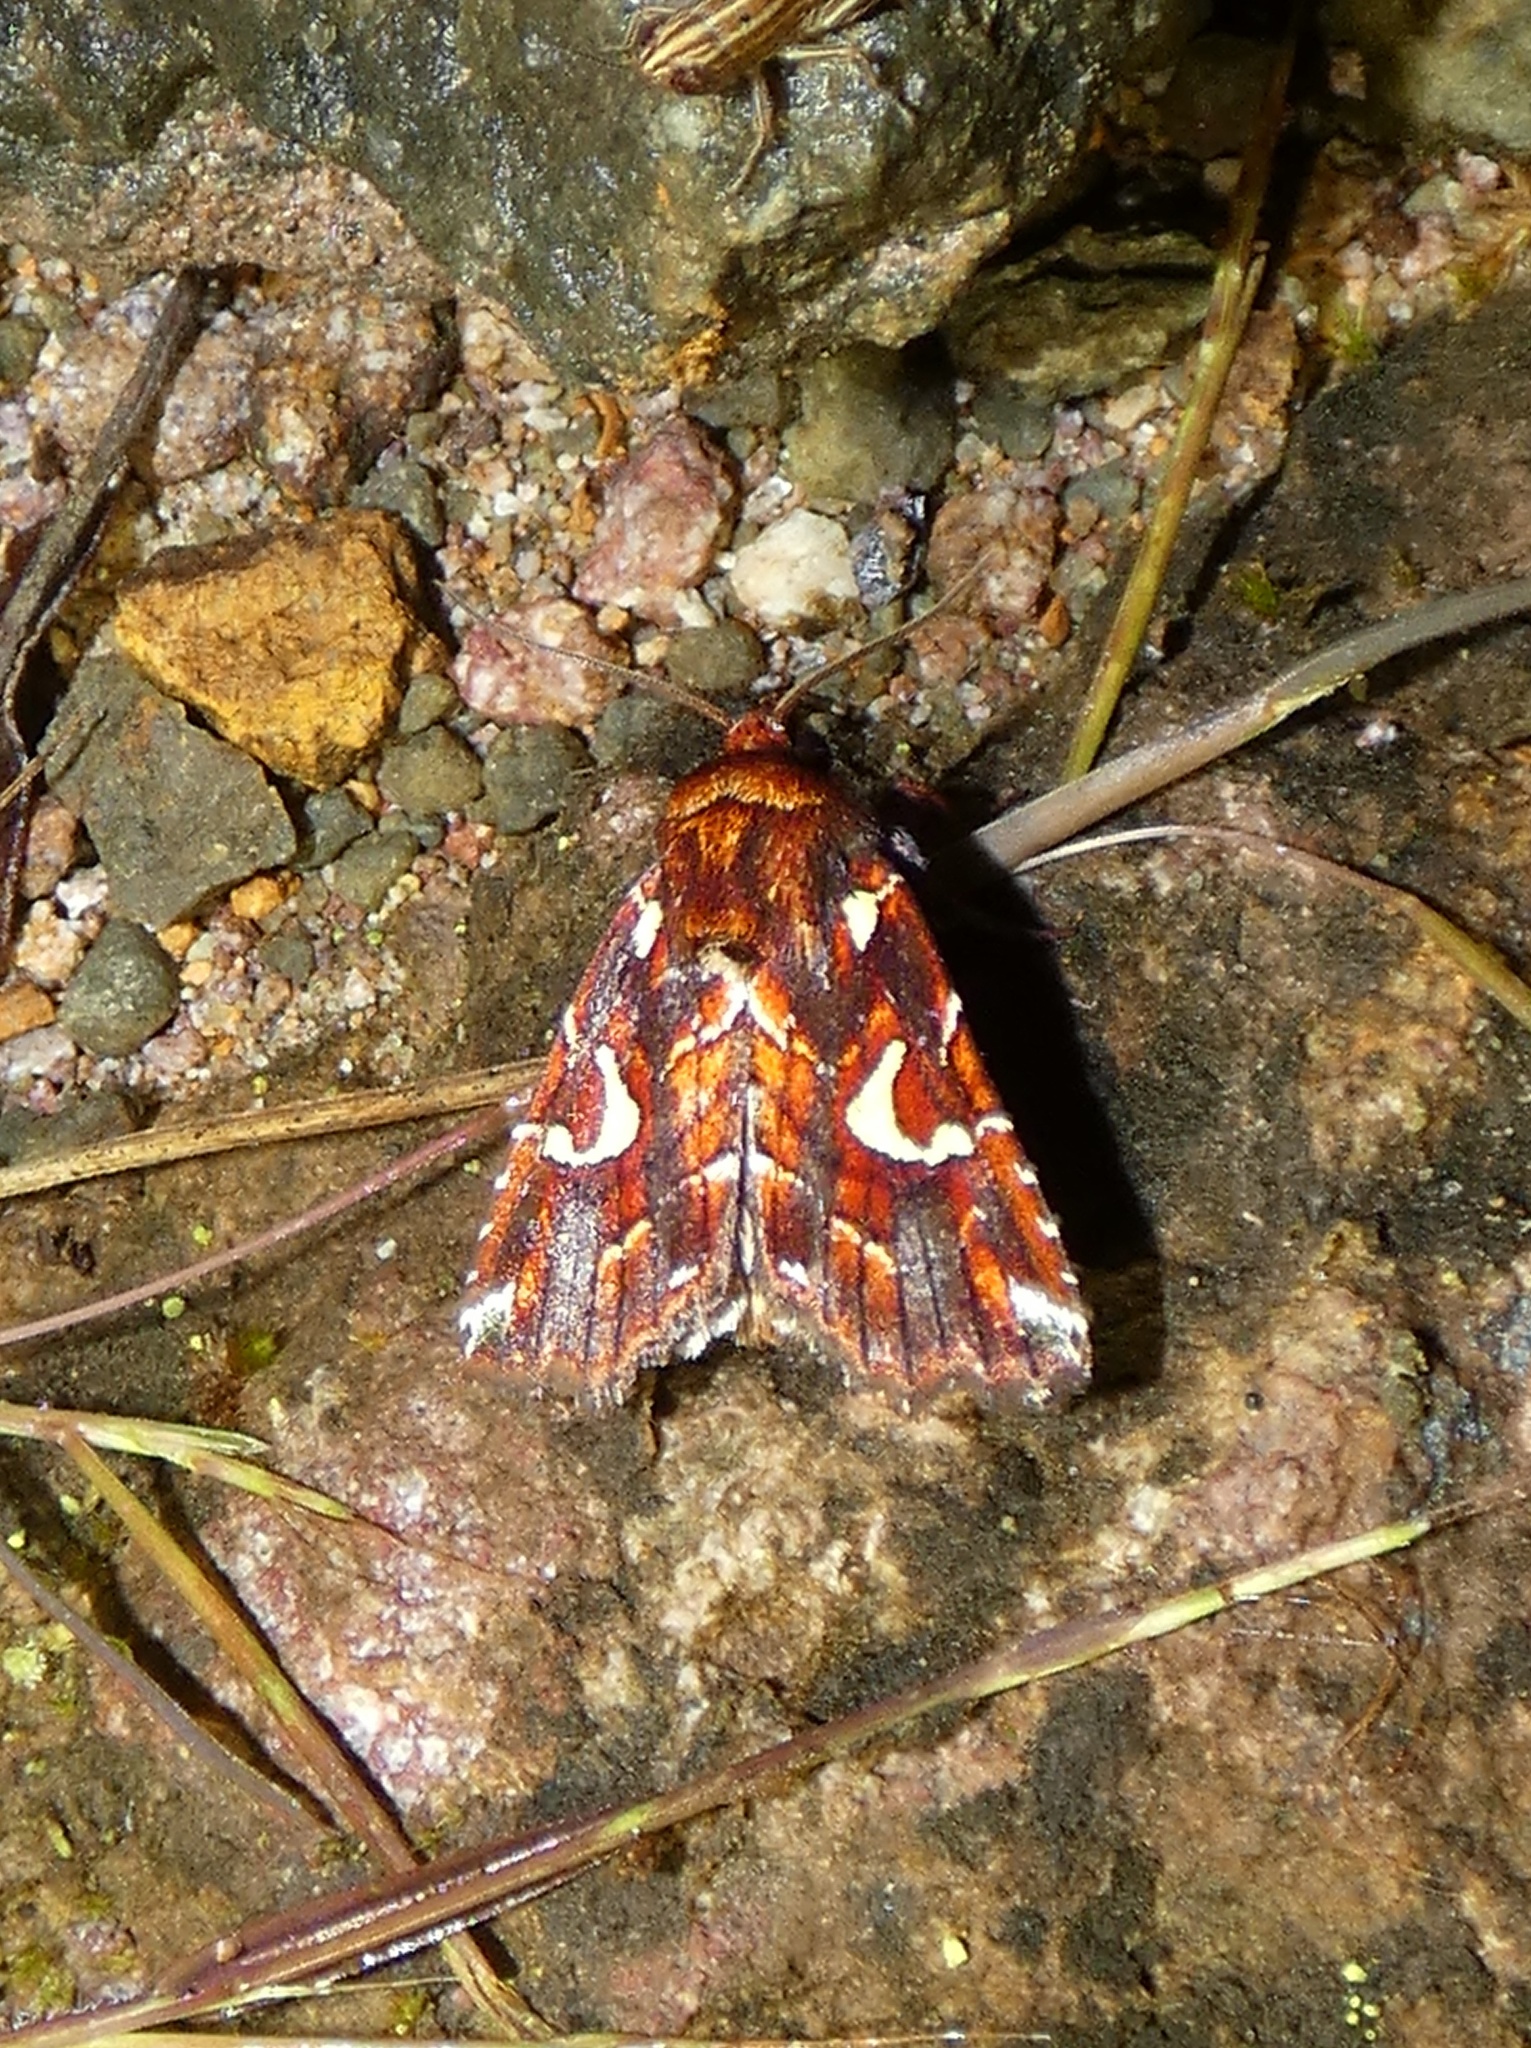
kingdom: Animalia
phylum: Arthropoda
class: Insecta
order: Lepidoptera
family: Noctuidae
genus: Leucosigma
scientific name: Leucosigma uncifera
